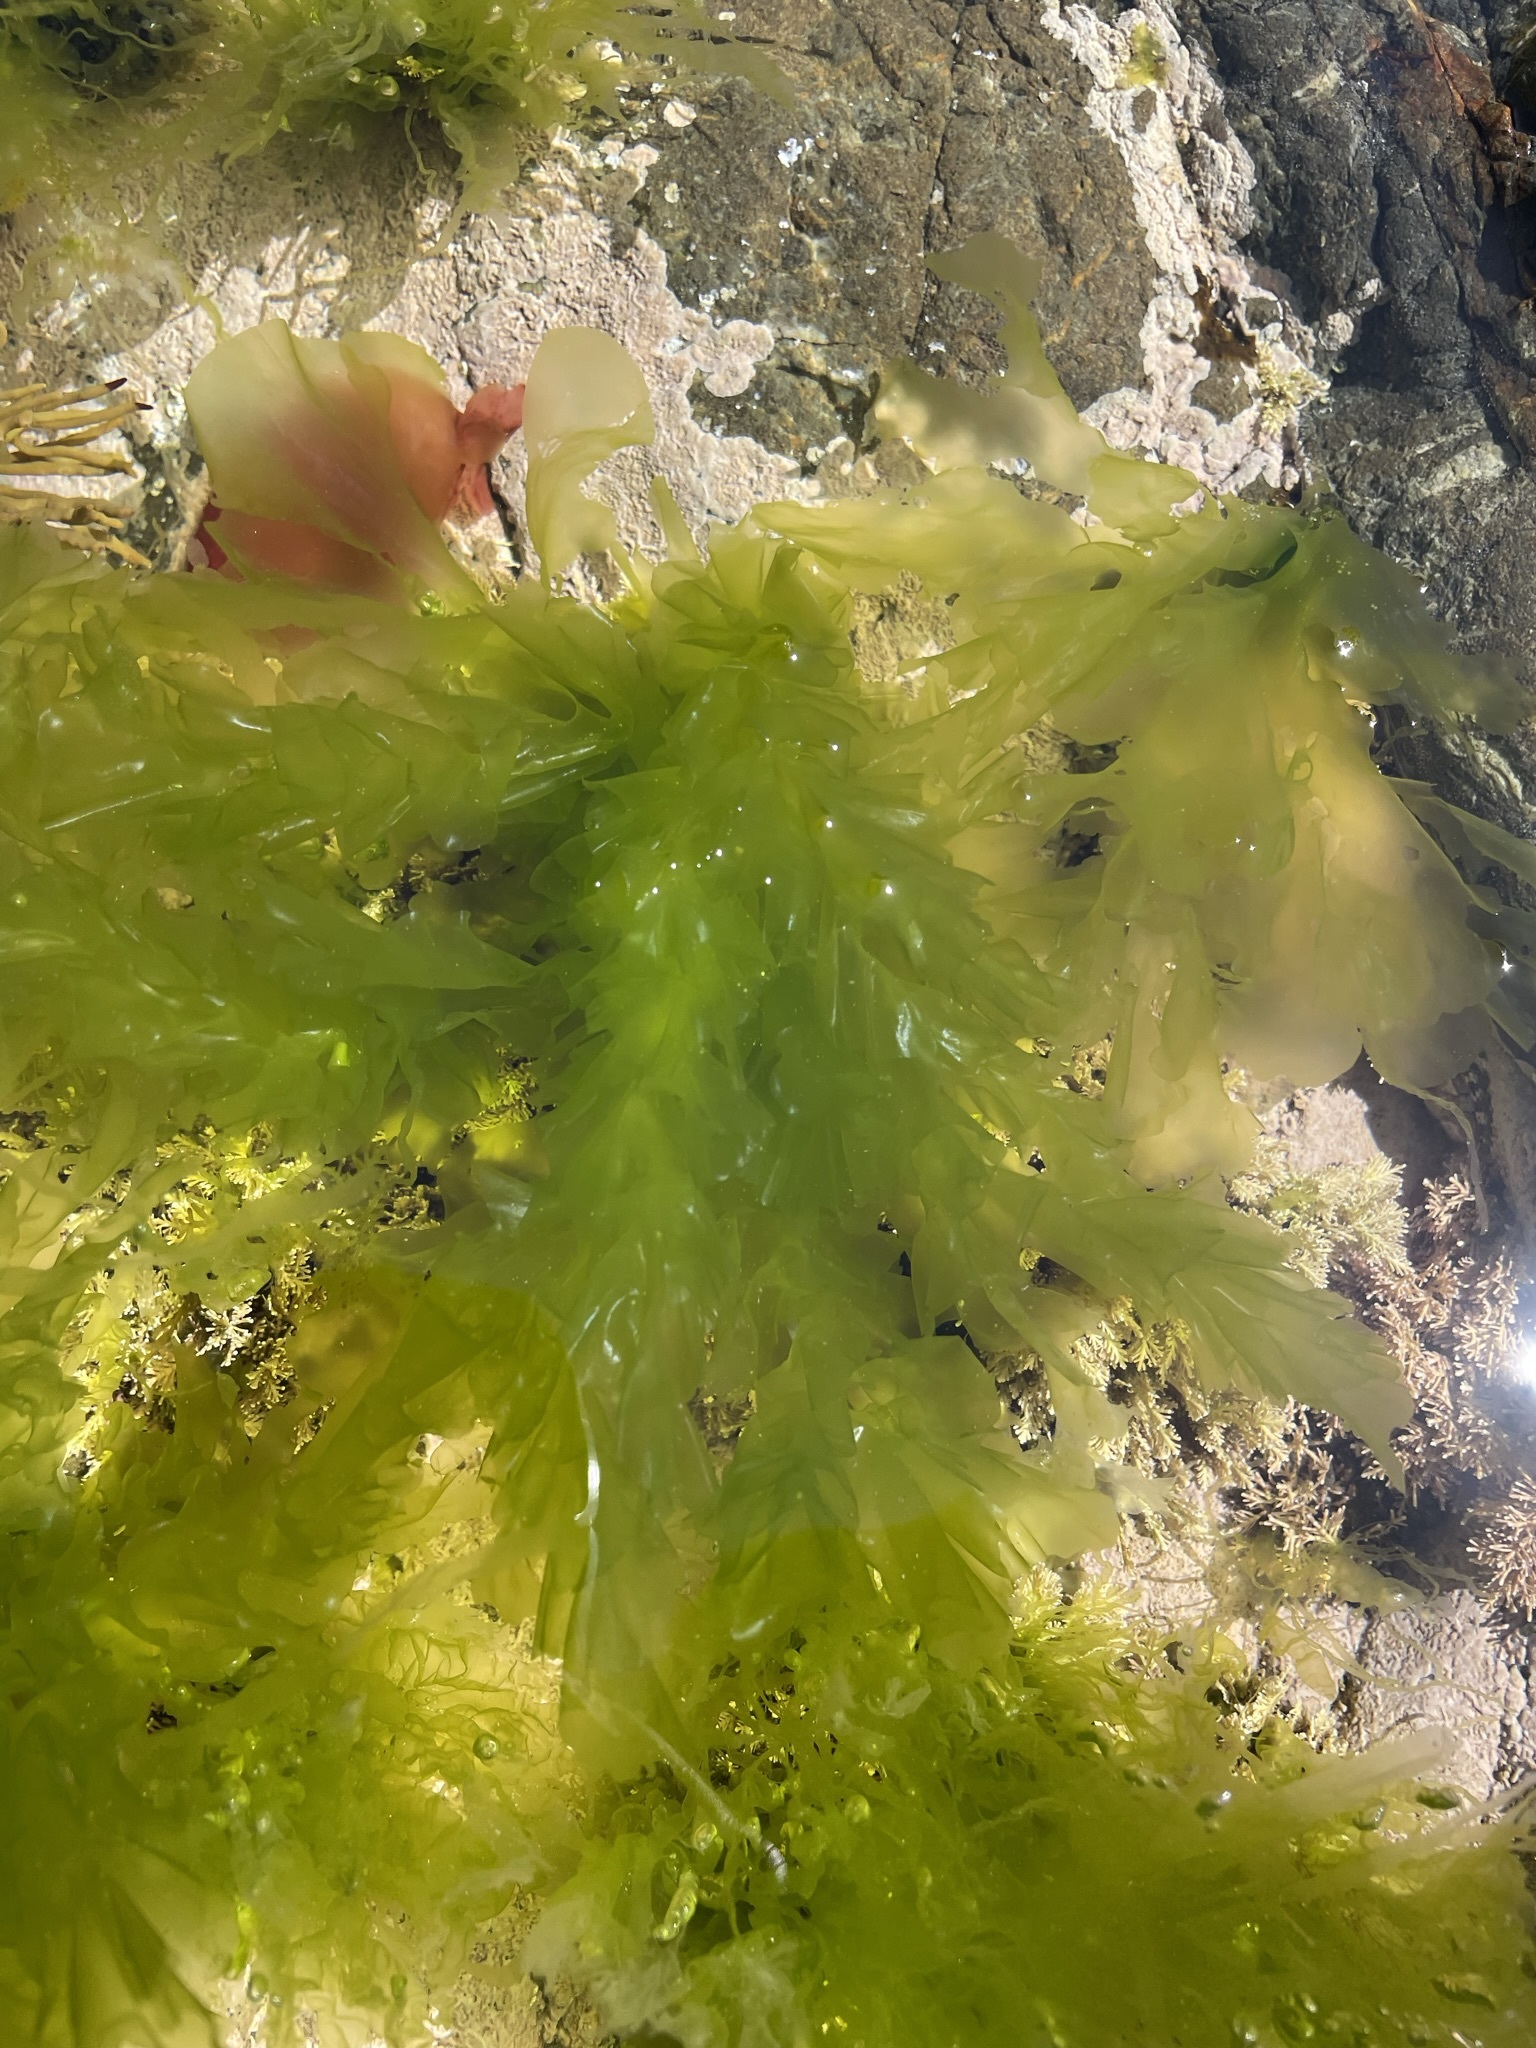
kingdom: Plantae
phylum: Chlorophyta
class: Ulvophyceae
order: Ulvales
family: Ulvaceae
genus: Ulva
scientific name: Ulva
